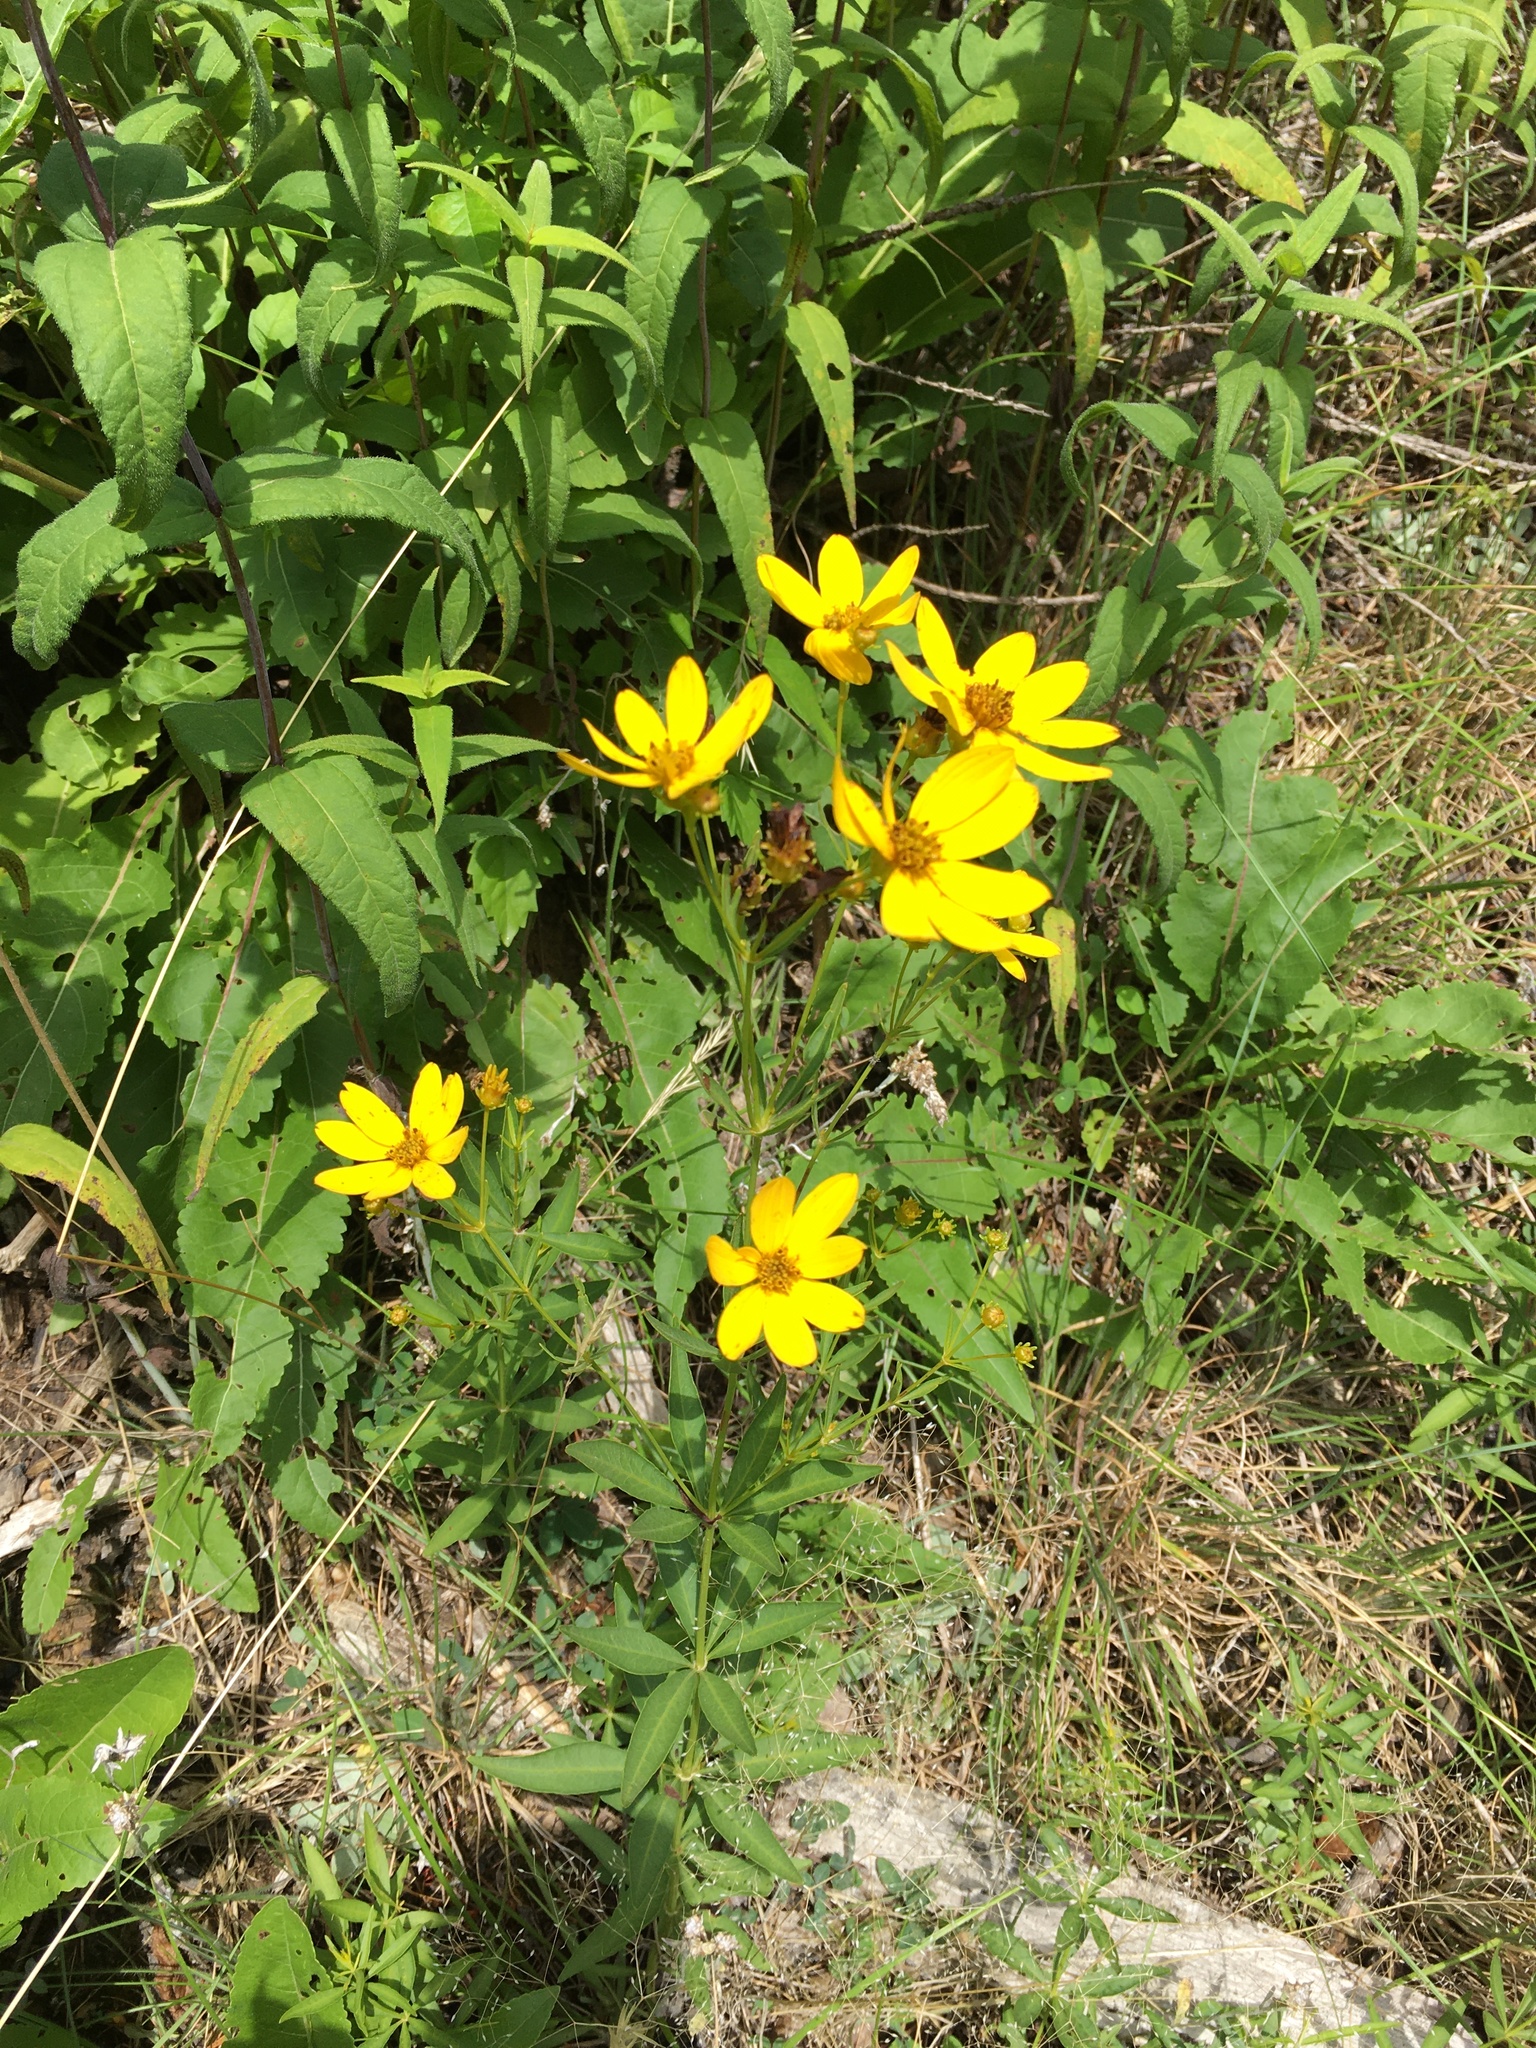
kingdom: Plantae
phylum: Tracheophyta
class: Magnoliopsida
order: Asterales
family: Asteraceae
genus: Coreopsis
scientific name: Coreopsis major
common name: Forest tickseed
